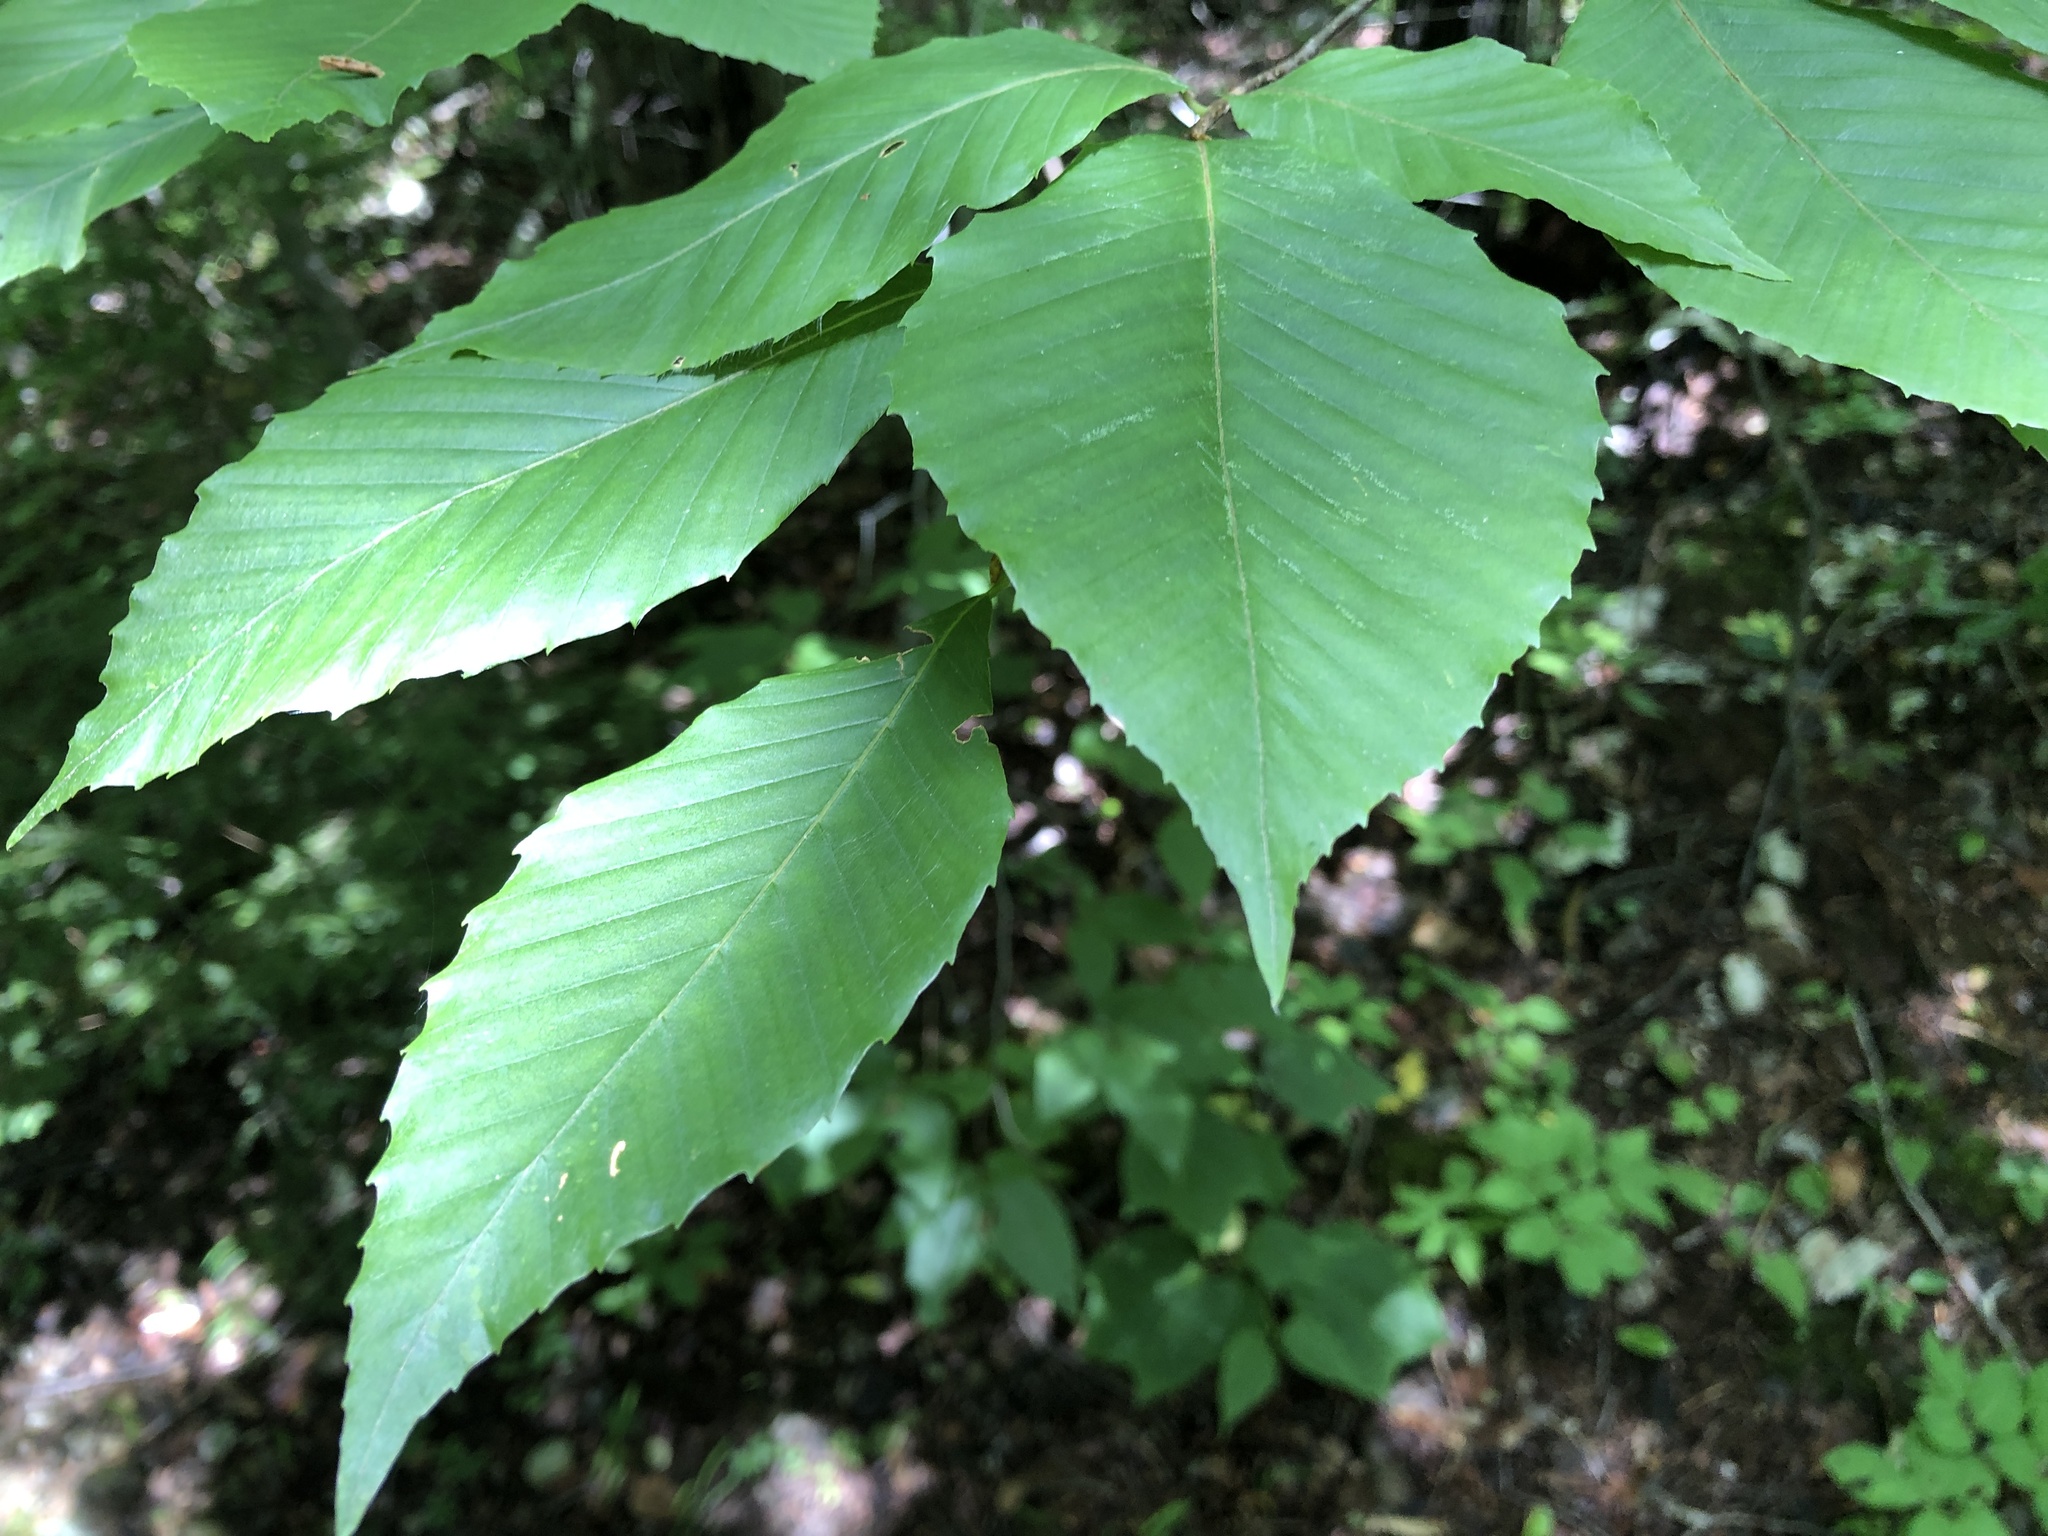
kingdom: Plantae
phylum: Tracheophyta
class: Magnoliopsida
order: Fagales
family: Fagaceae
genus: Fagus
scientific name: Fagus grandifolia
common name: American beech
